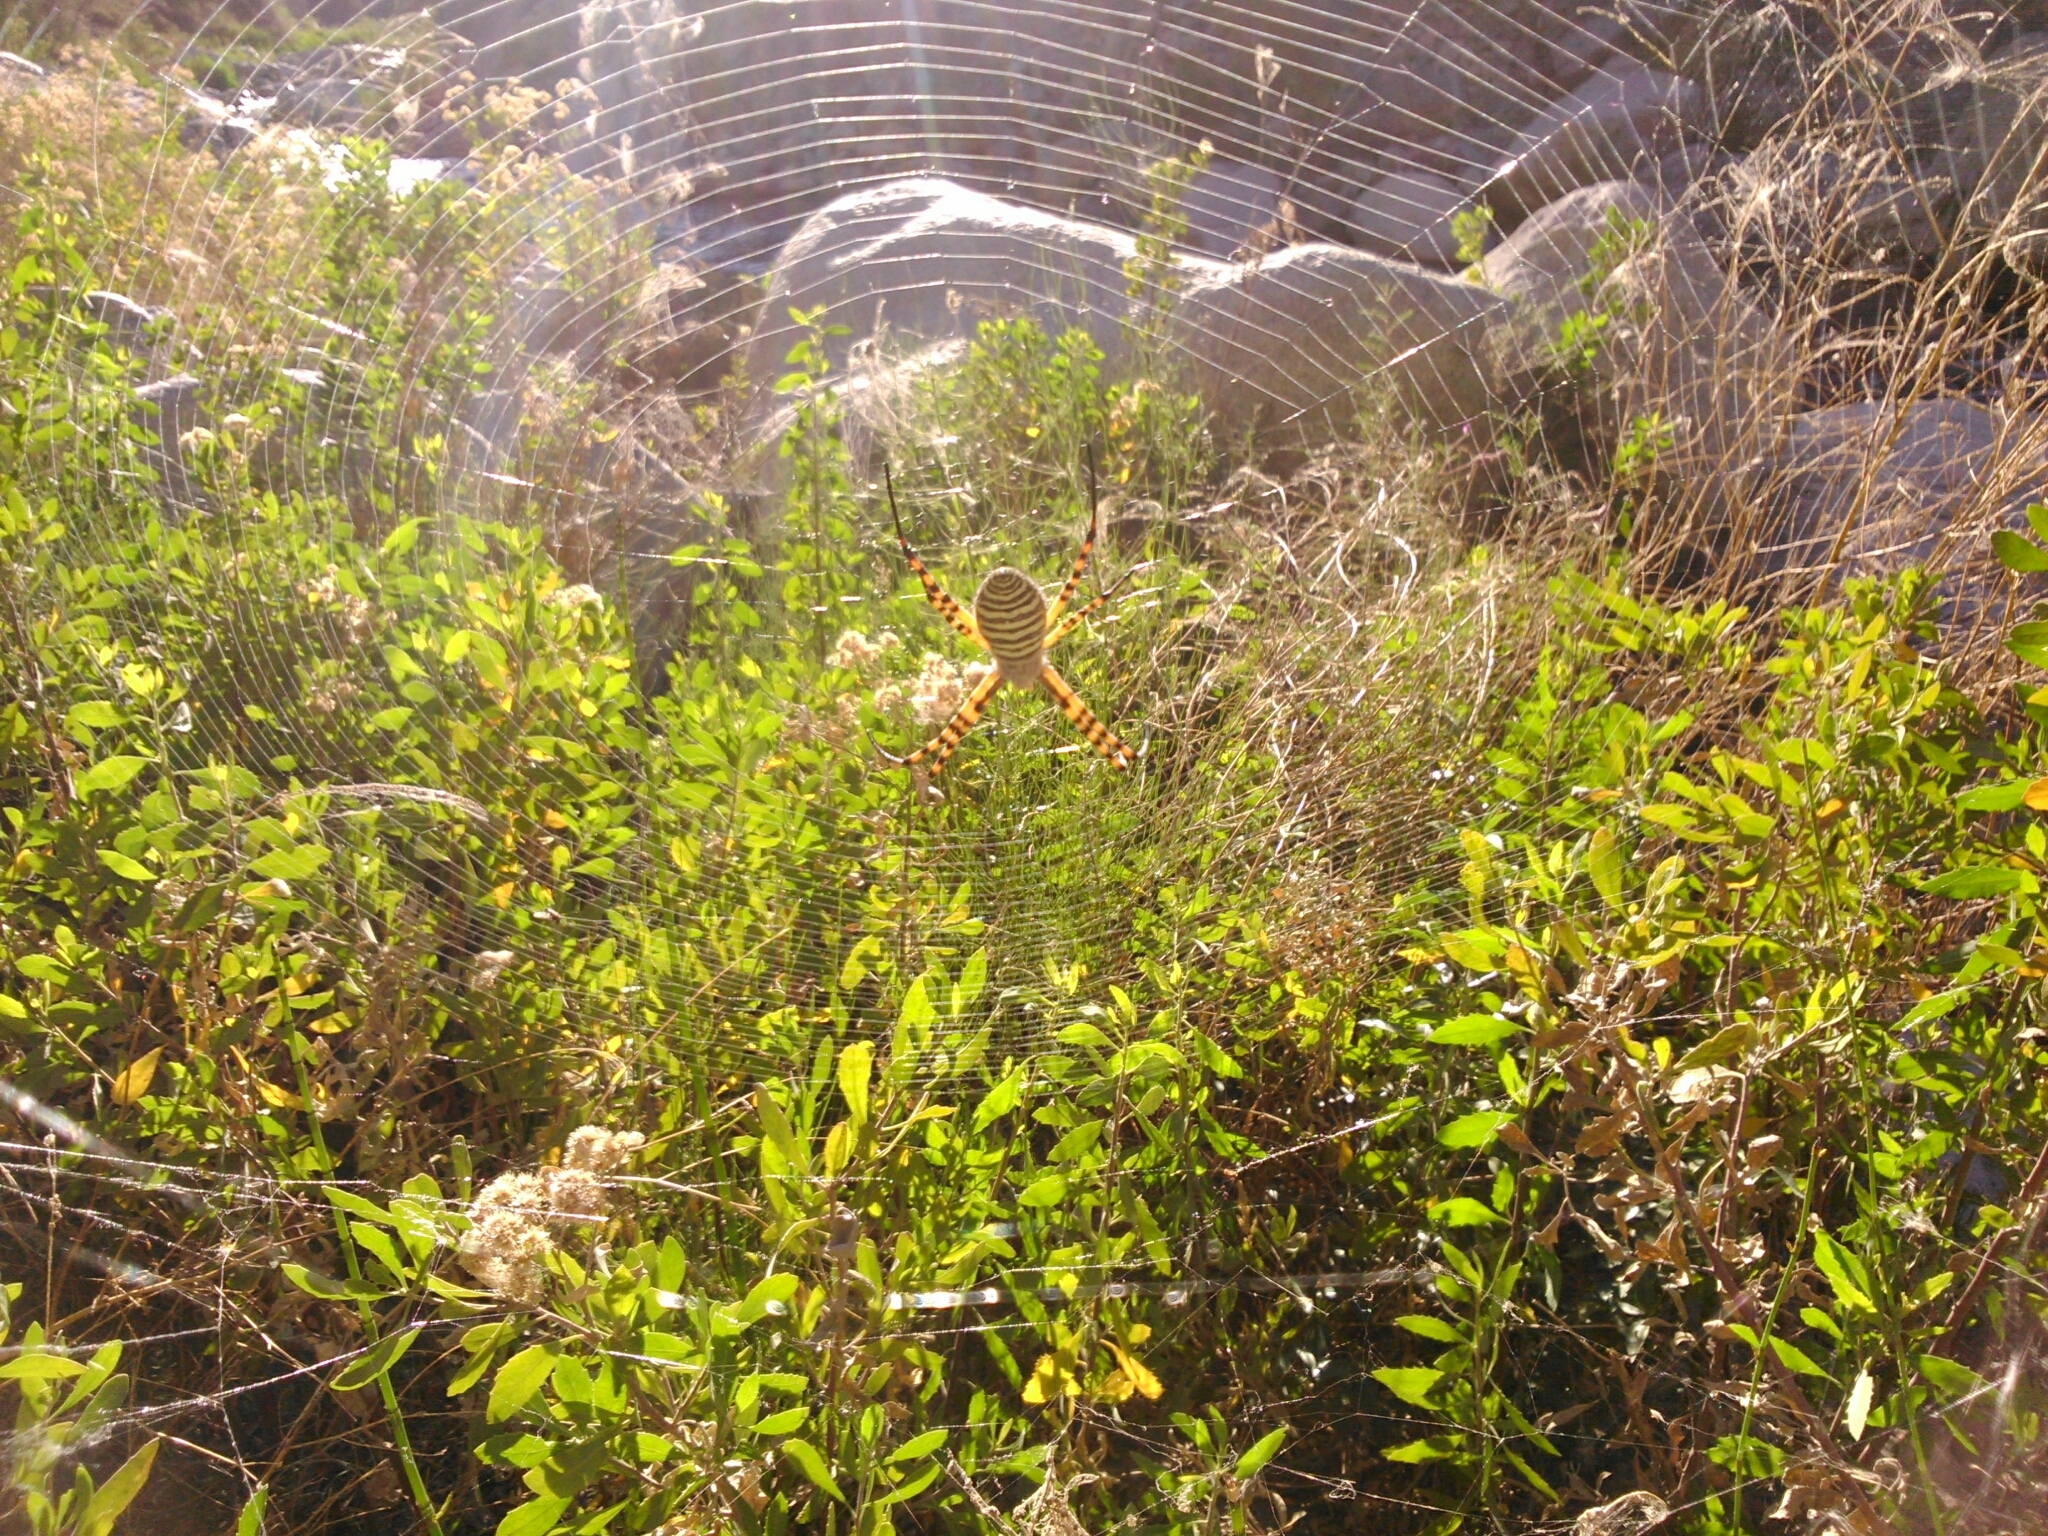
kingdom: Animalia
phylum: Arthropoda
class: Arachnida
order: Araneae
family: Araneidae
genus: Argiope
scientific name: Argiope trifasciata
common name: Banded garden spider
